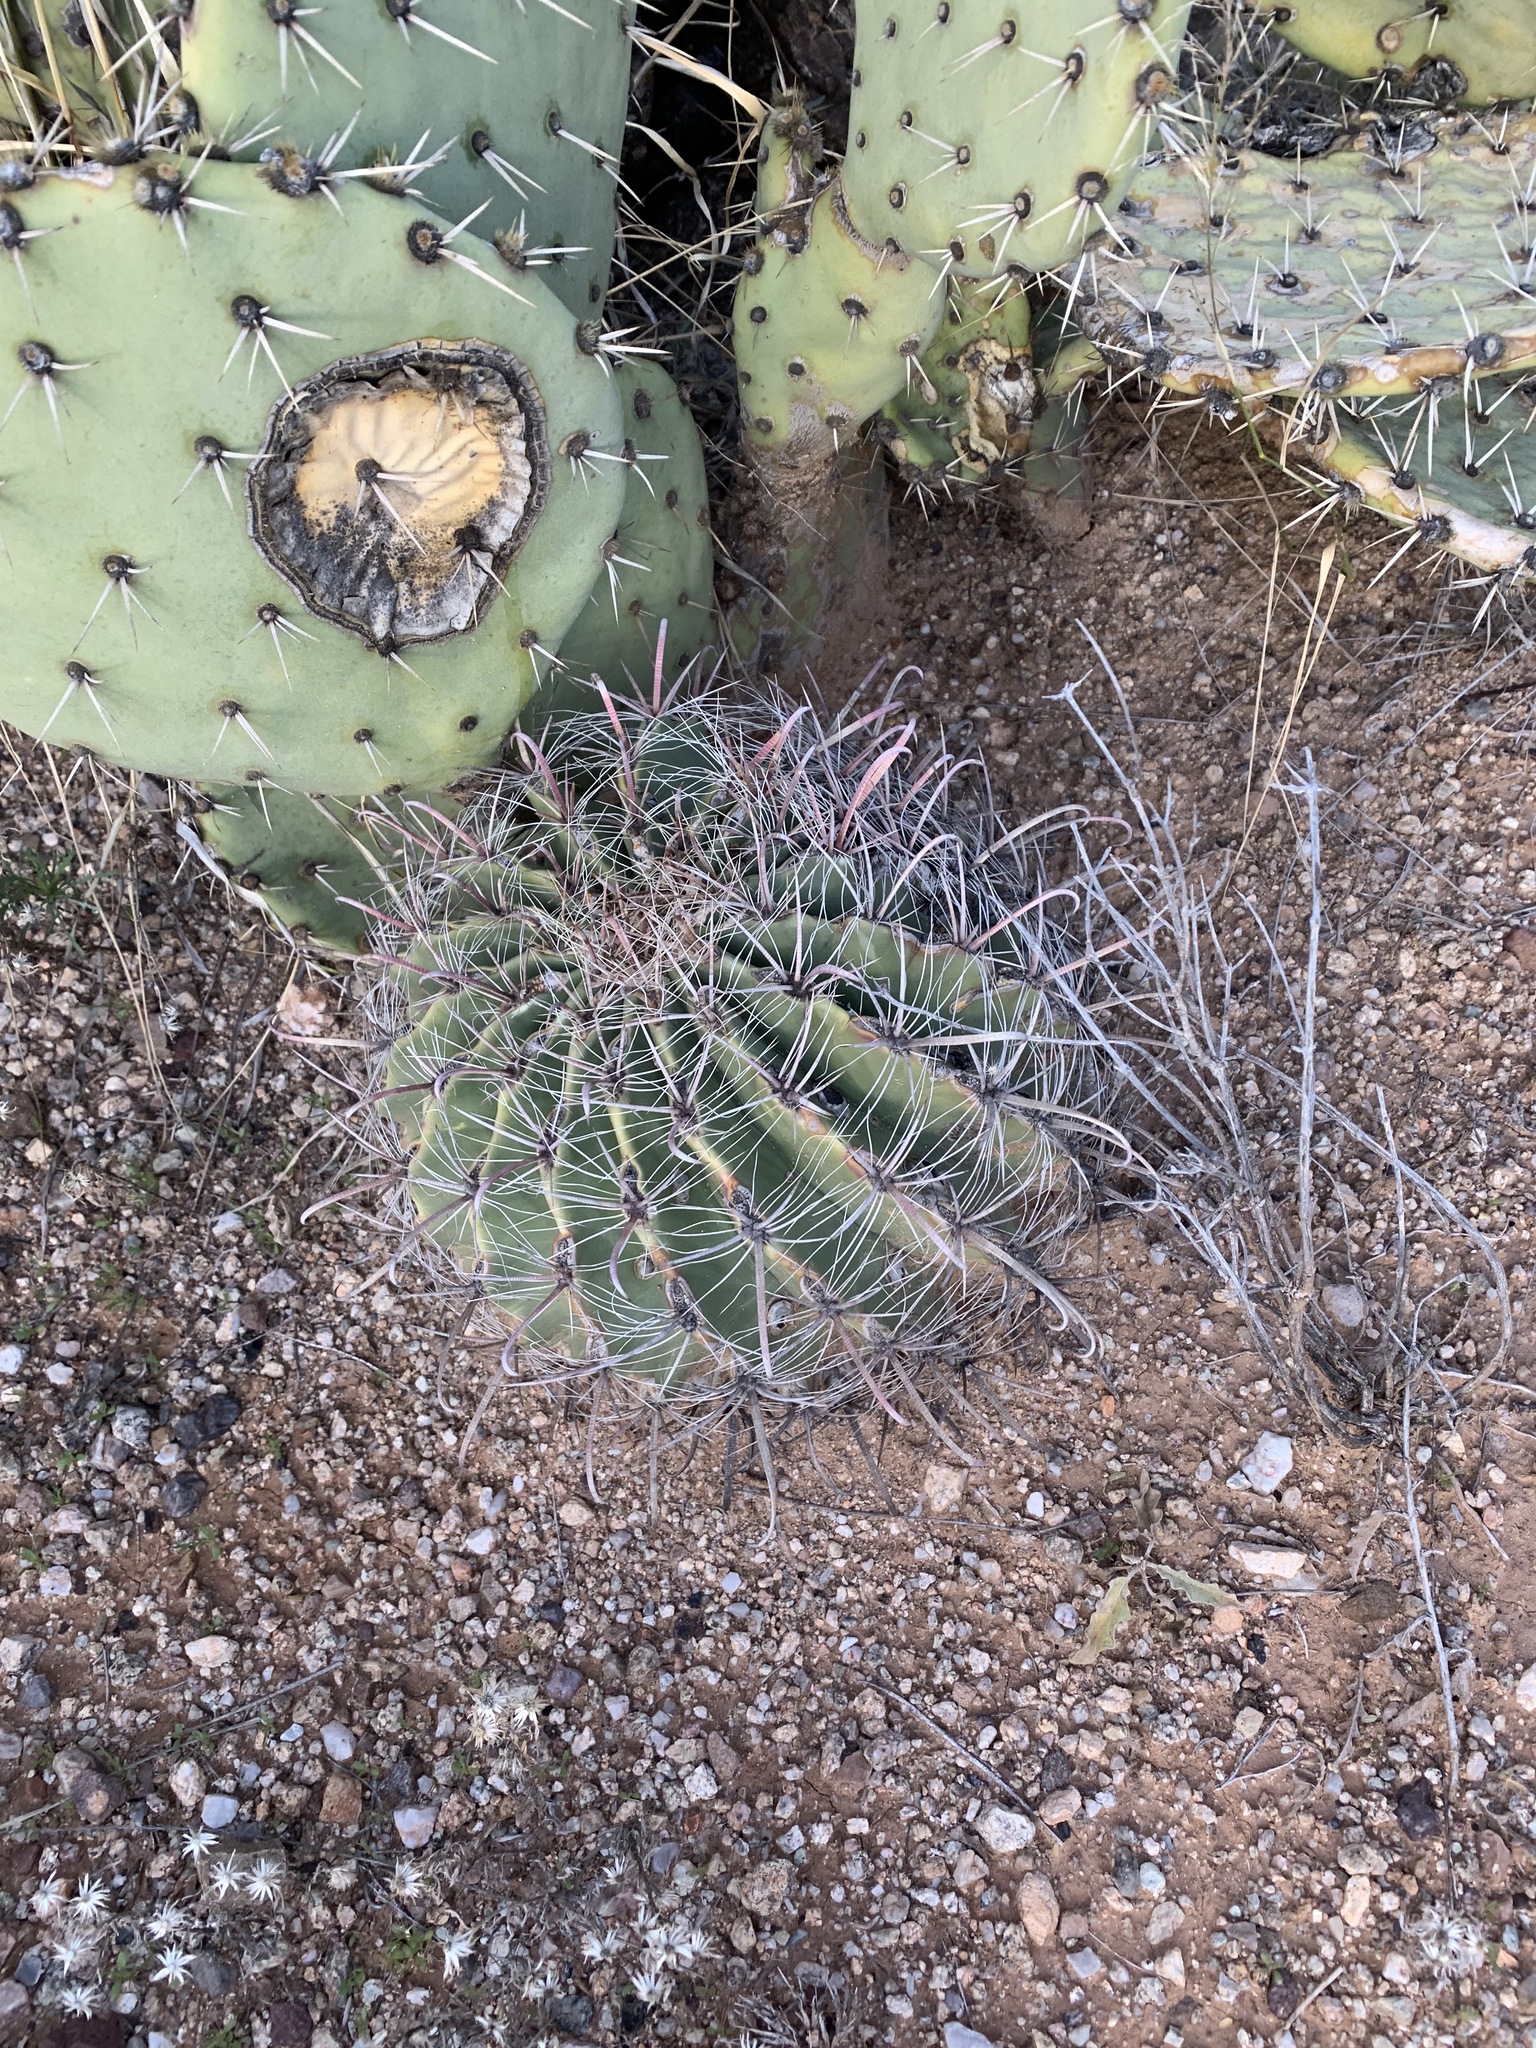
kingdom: Plantae
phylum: Tracheophyta
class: Magnoliopsida
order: Caryophyllales
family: Cactaceae
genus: Ferocactus
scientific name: Ferocactus wislizeni
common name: Candy barrel cactus
